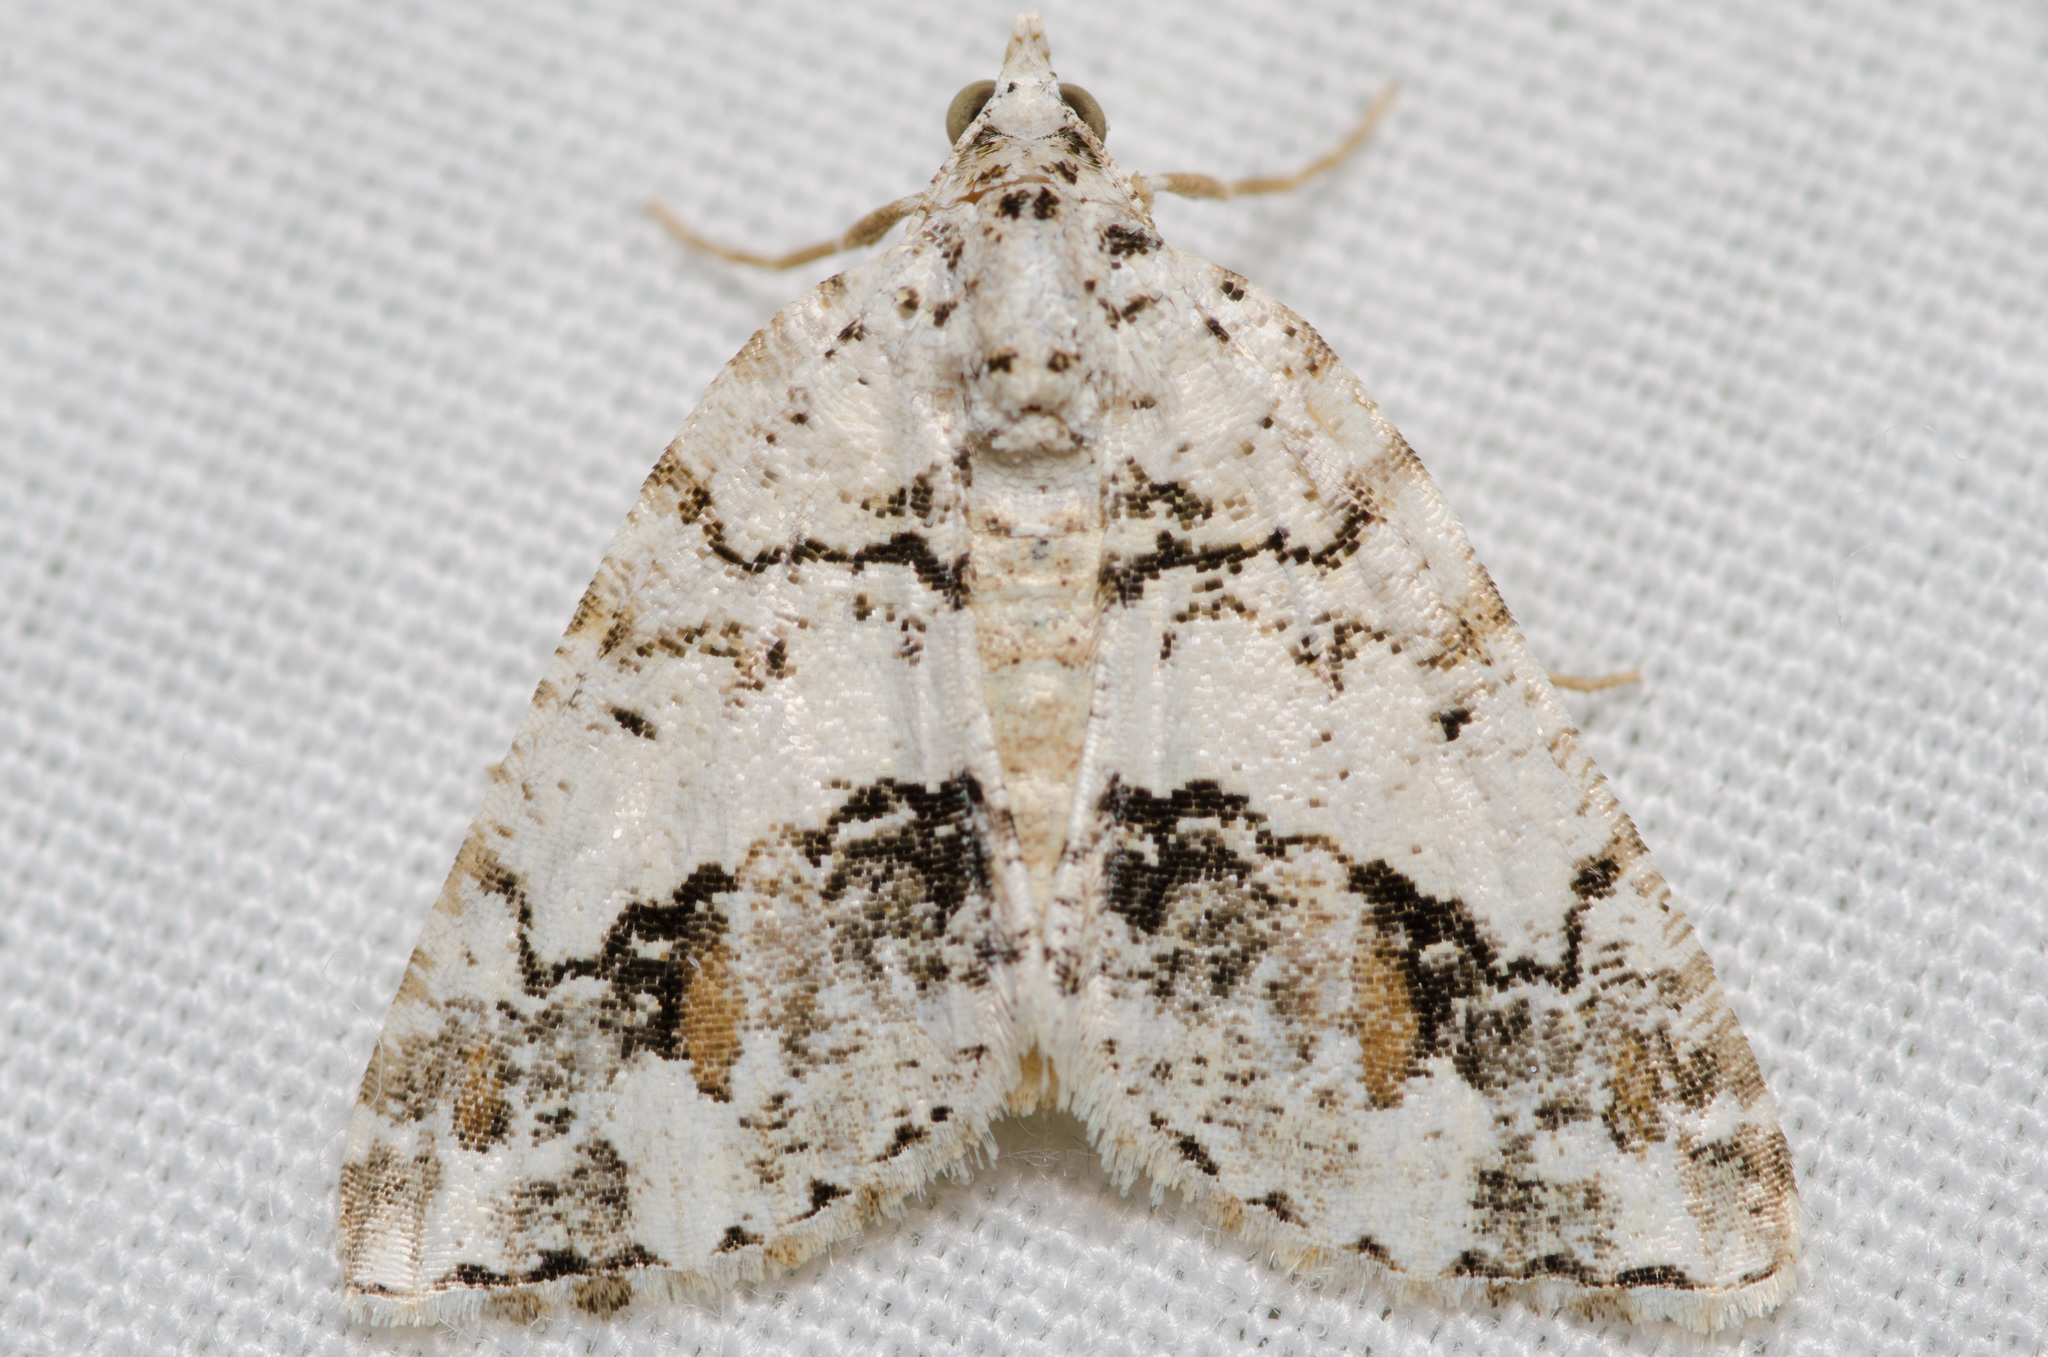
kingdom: Animalia
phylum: Arthropoda
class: Insecta
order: Lepidoptera
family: Geometridae
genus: Macaria
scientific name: Macaria graphidaria
